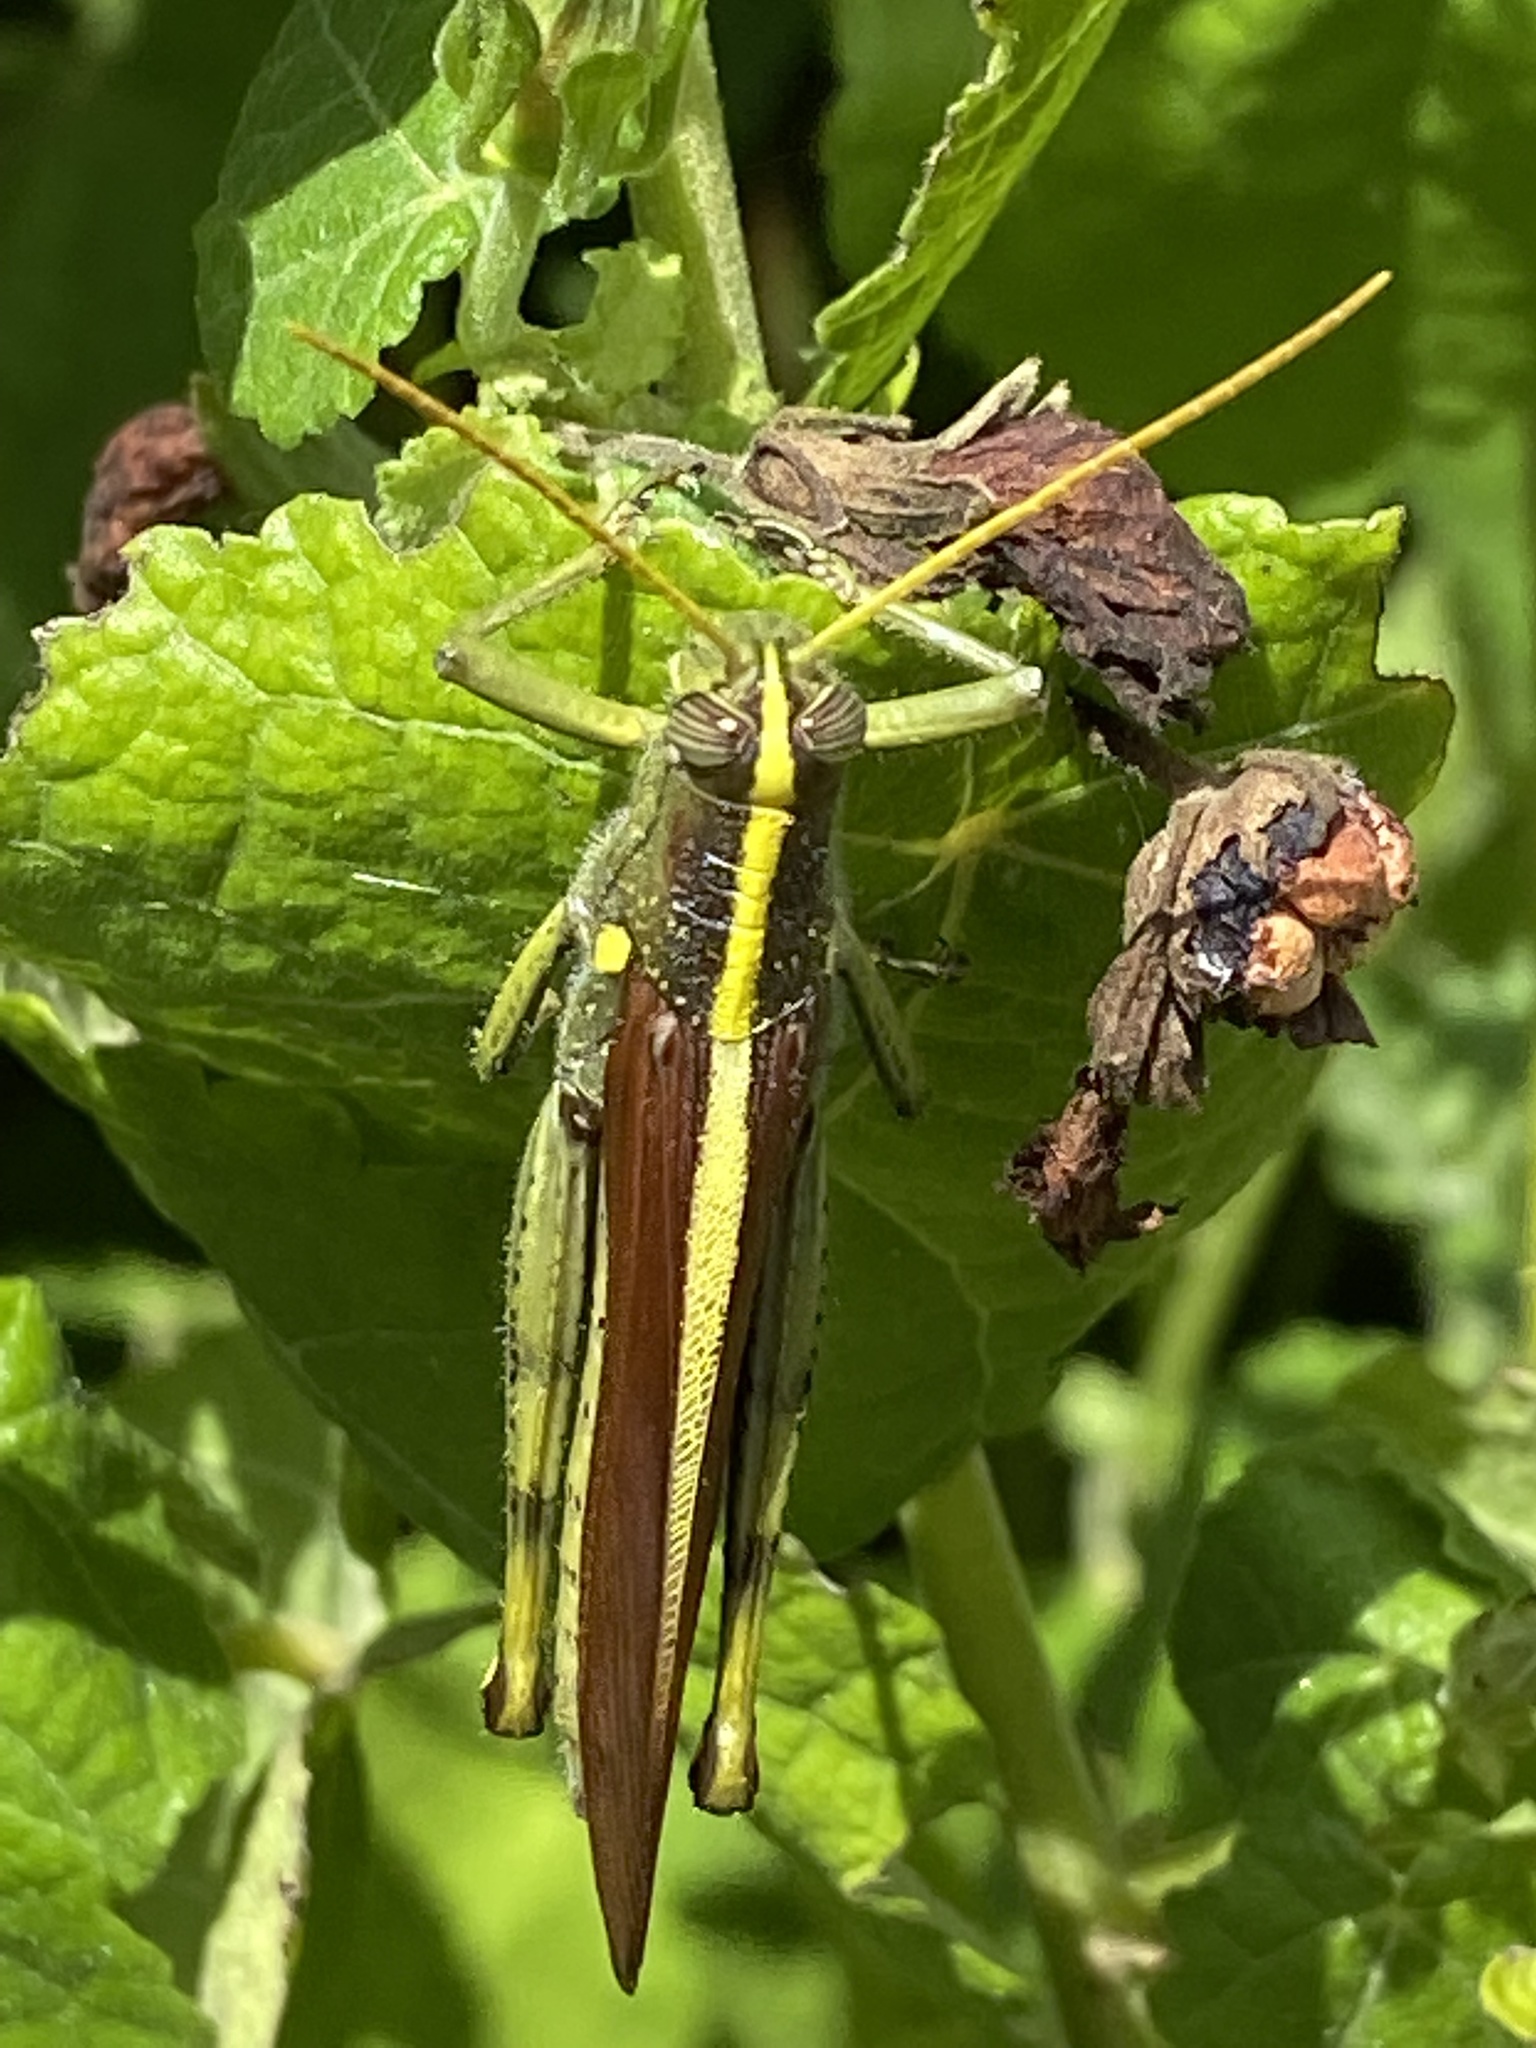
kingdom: Animalia
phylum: Arthropoda
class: Insecta
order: Orthoptera
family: Acrididae
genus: Schistocerca
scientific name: Schistocerca obscura
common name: Obscure bird grasshopper
